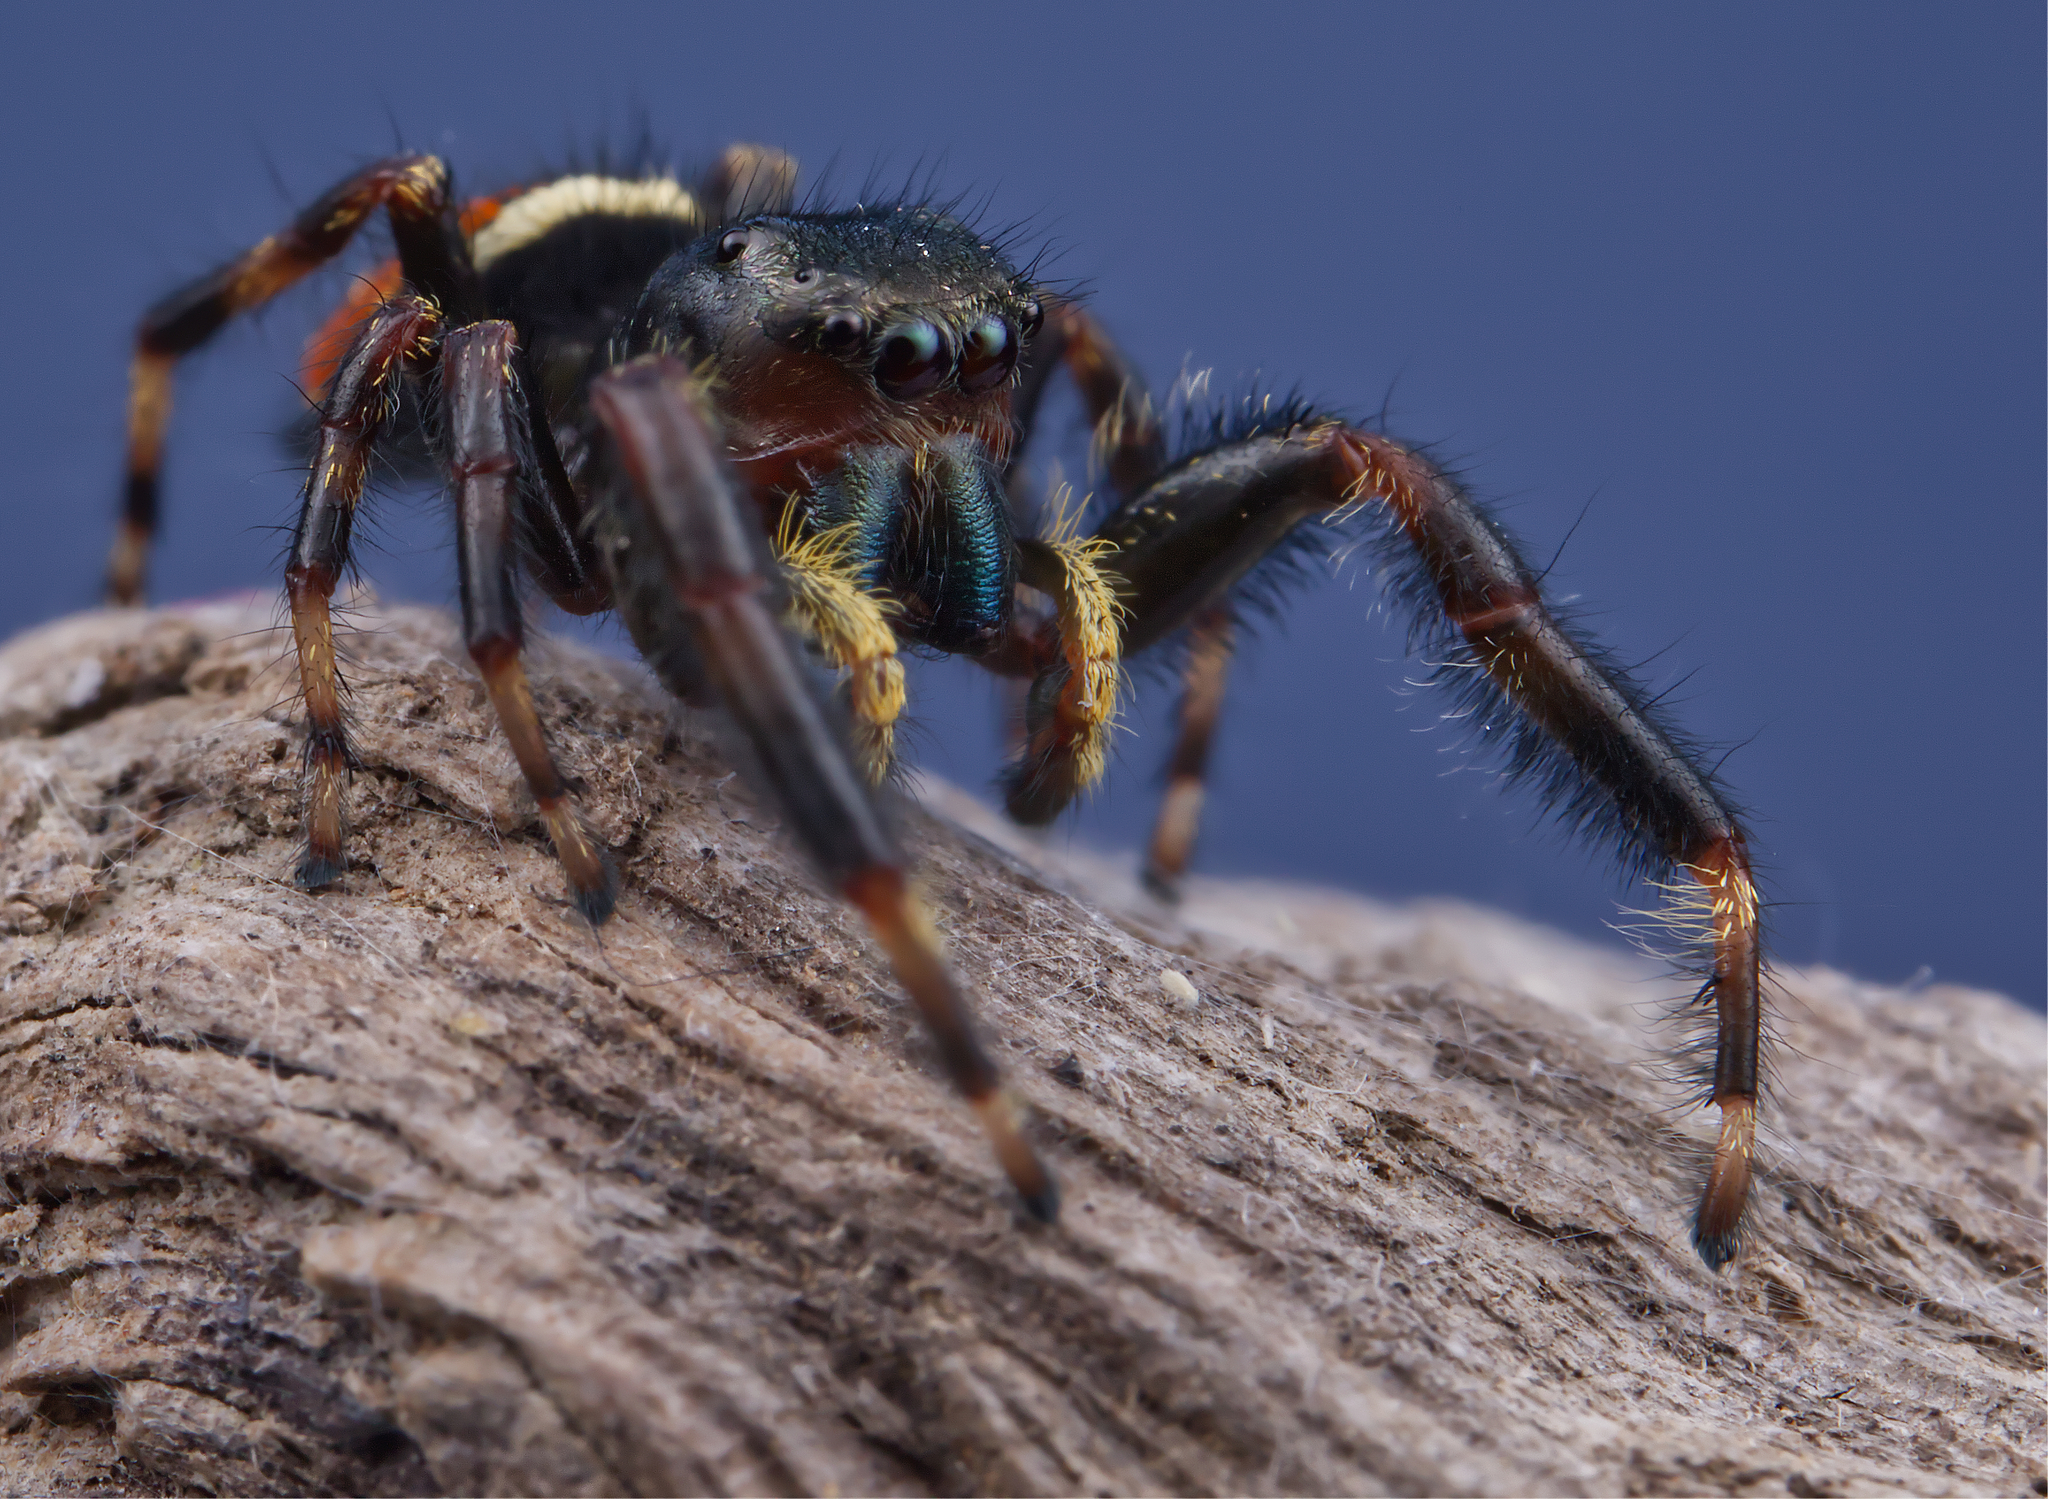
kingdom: Animalia
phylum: Arthropoda
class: Arachnida
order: Araneae
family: Salticidae
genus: Phidippus
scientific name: Phidippus clarus
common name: Brilliant jumping spider
